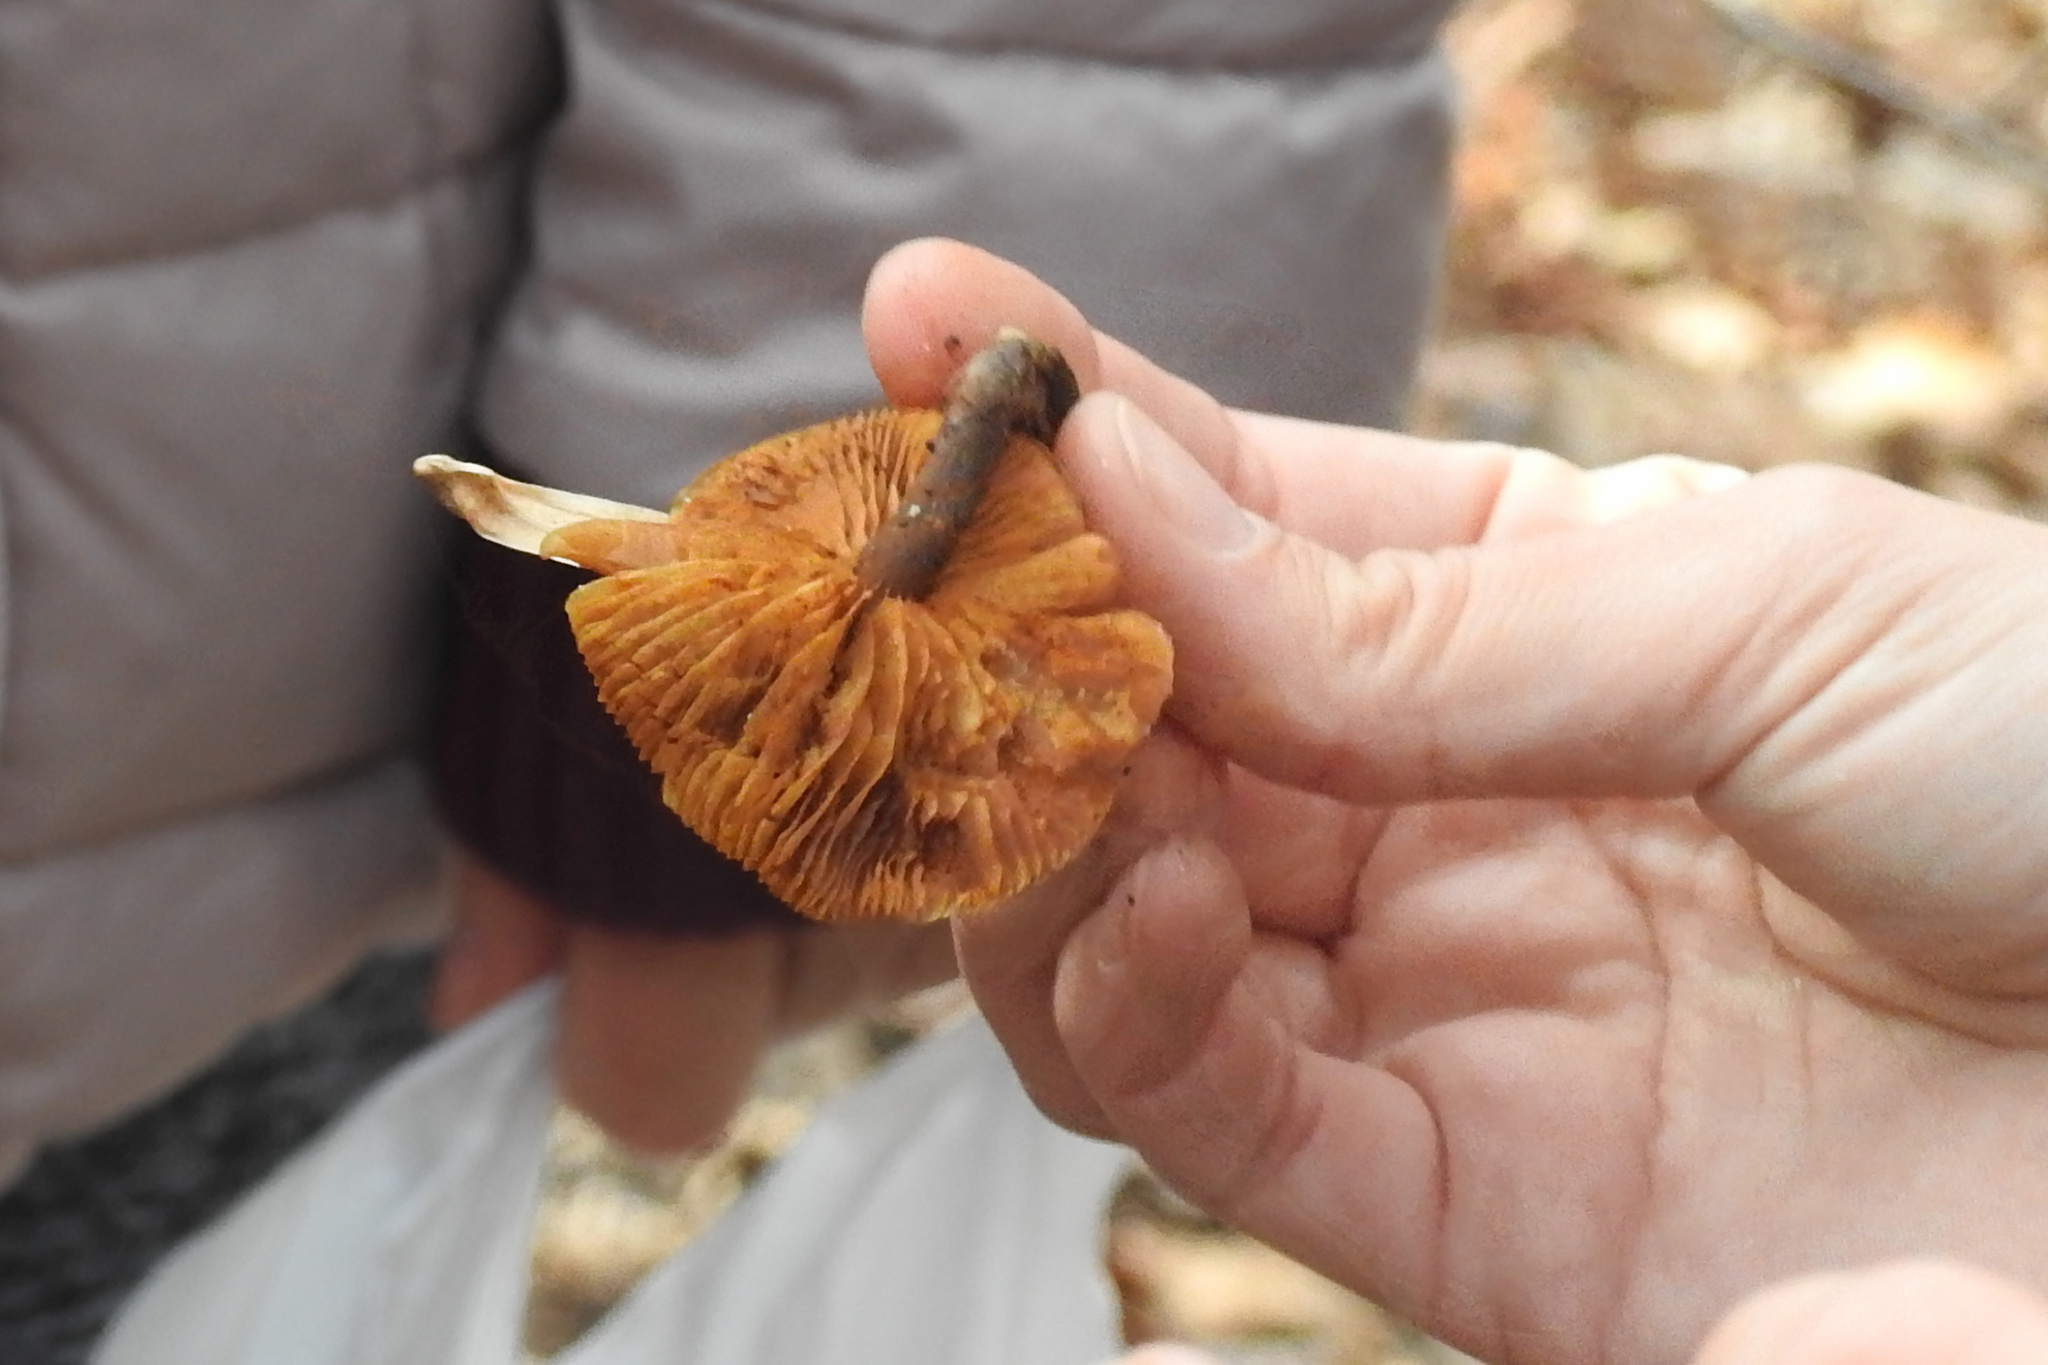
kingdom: Fungi
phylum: Basidiomycota
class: Agaricomycetes
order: Agaricales
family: Hymenogastraceae
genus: Galerina
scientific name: Galerina marginata
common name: Funeral bell
